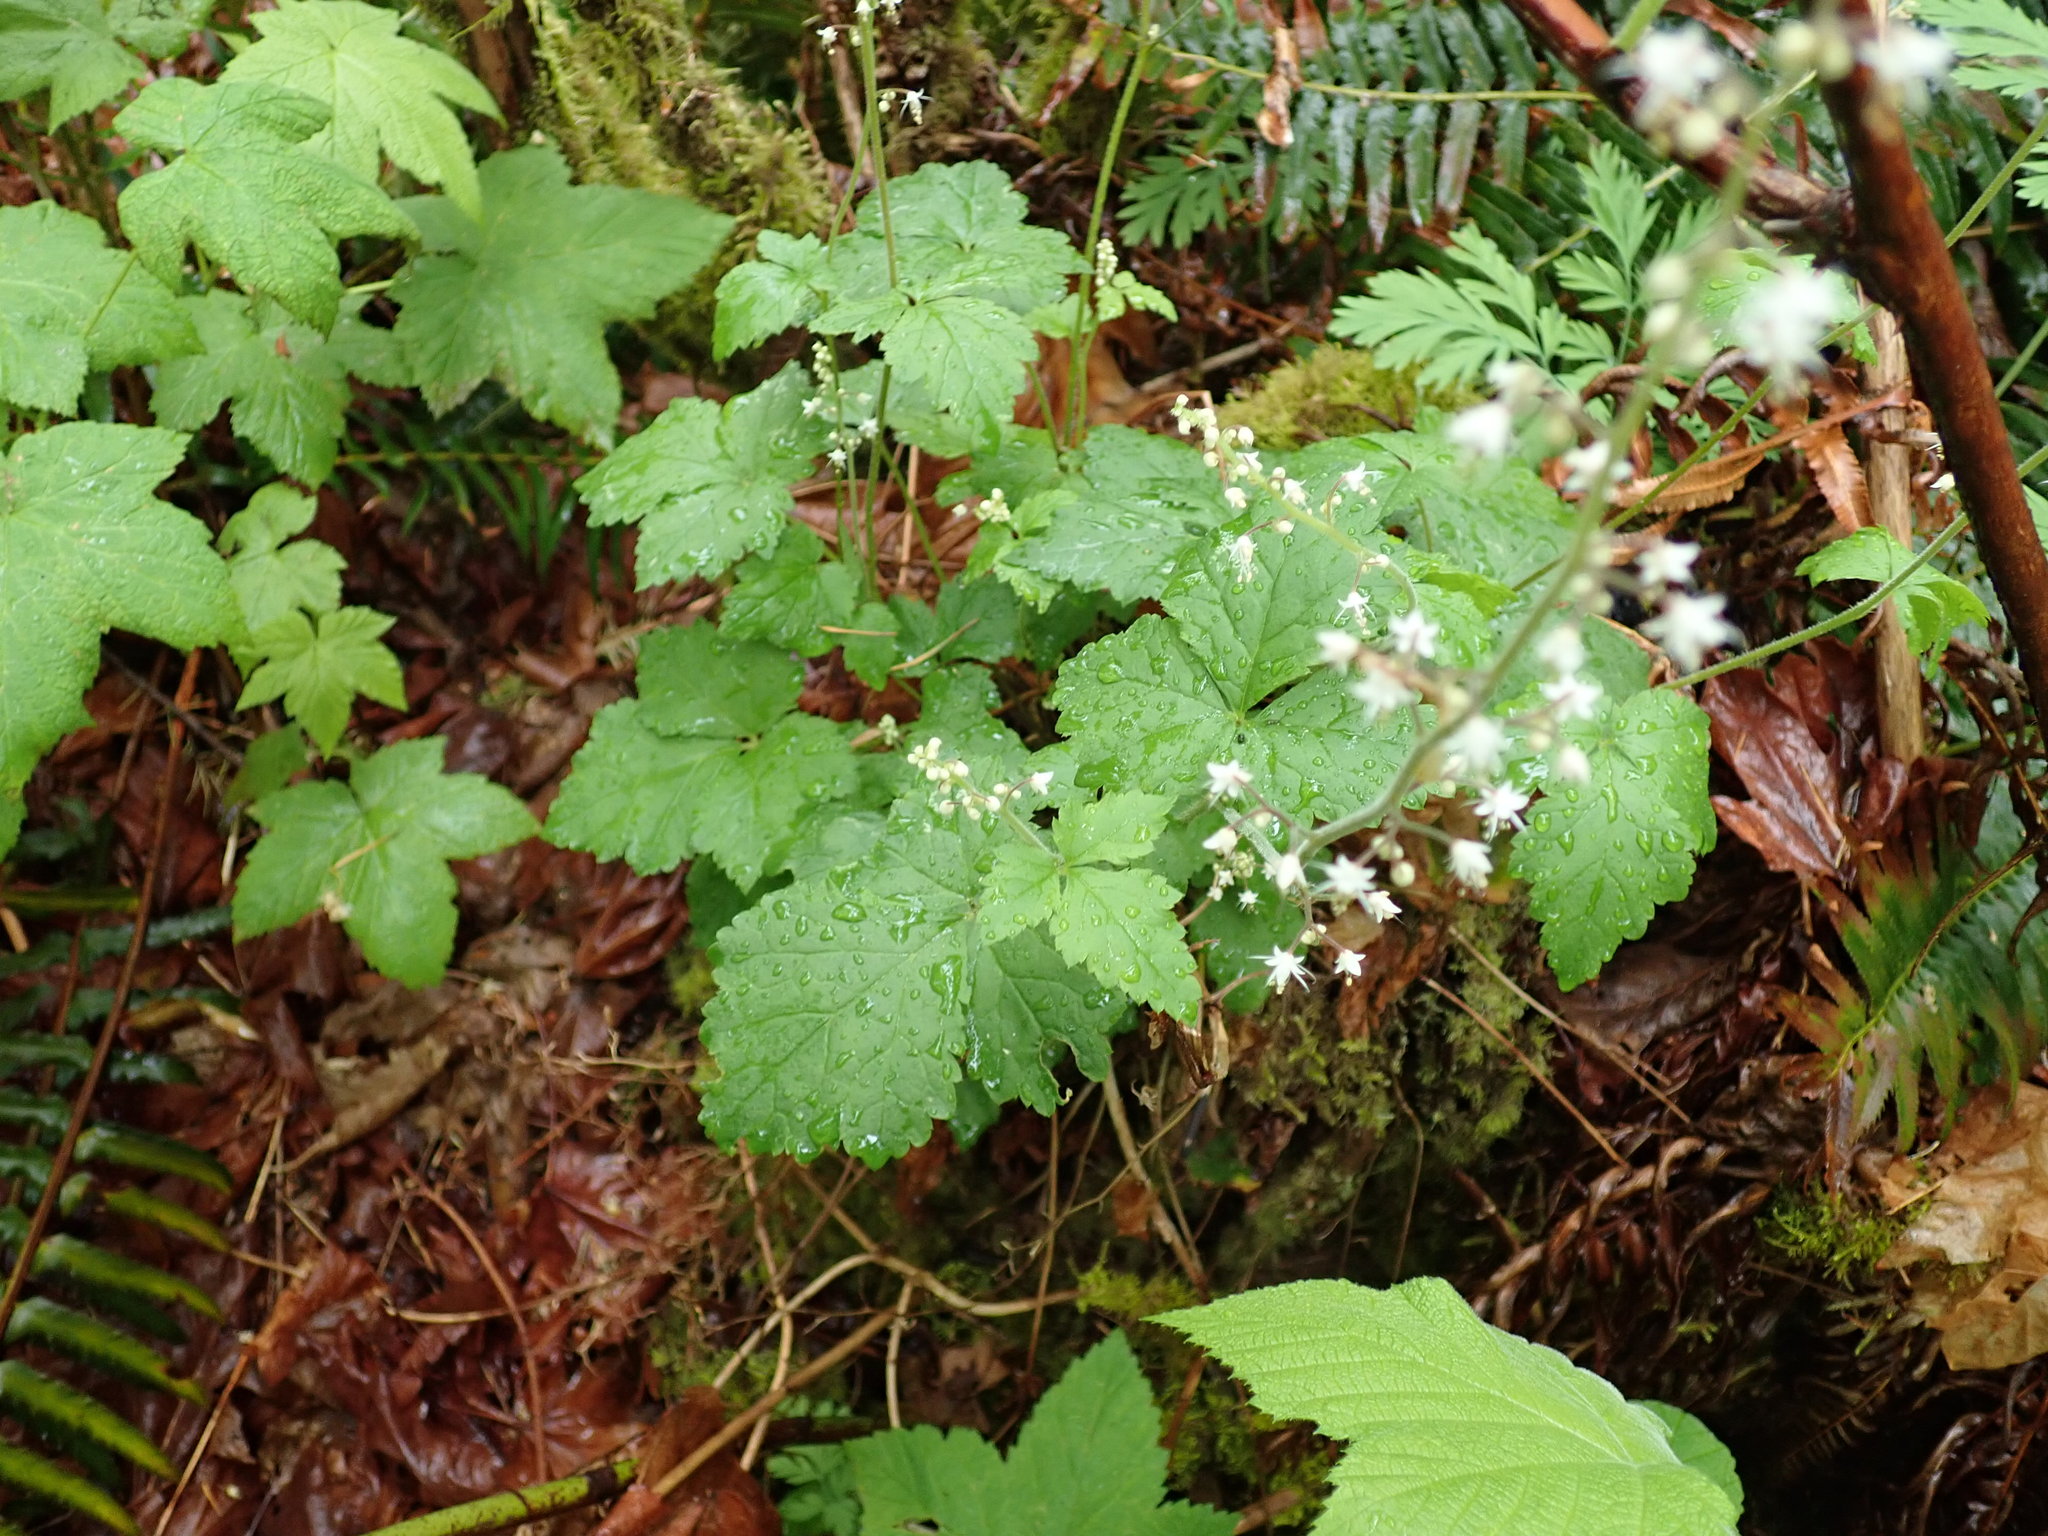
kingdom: Plantae
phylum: Tracheophyta
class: Magnoliopsida
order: Saxifragales
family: Saxifragaceae
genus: Tiarella
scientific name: Tiarella trifoliata
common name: Sugar-scoop
